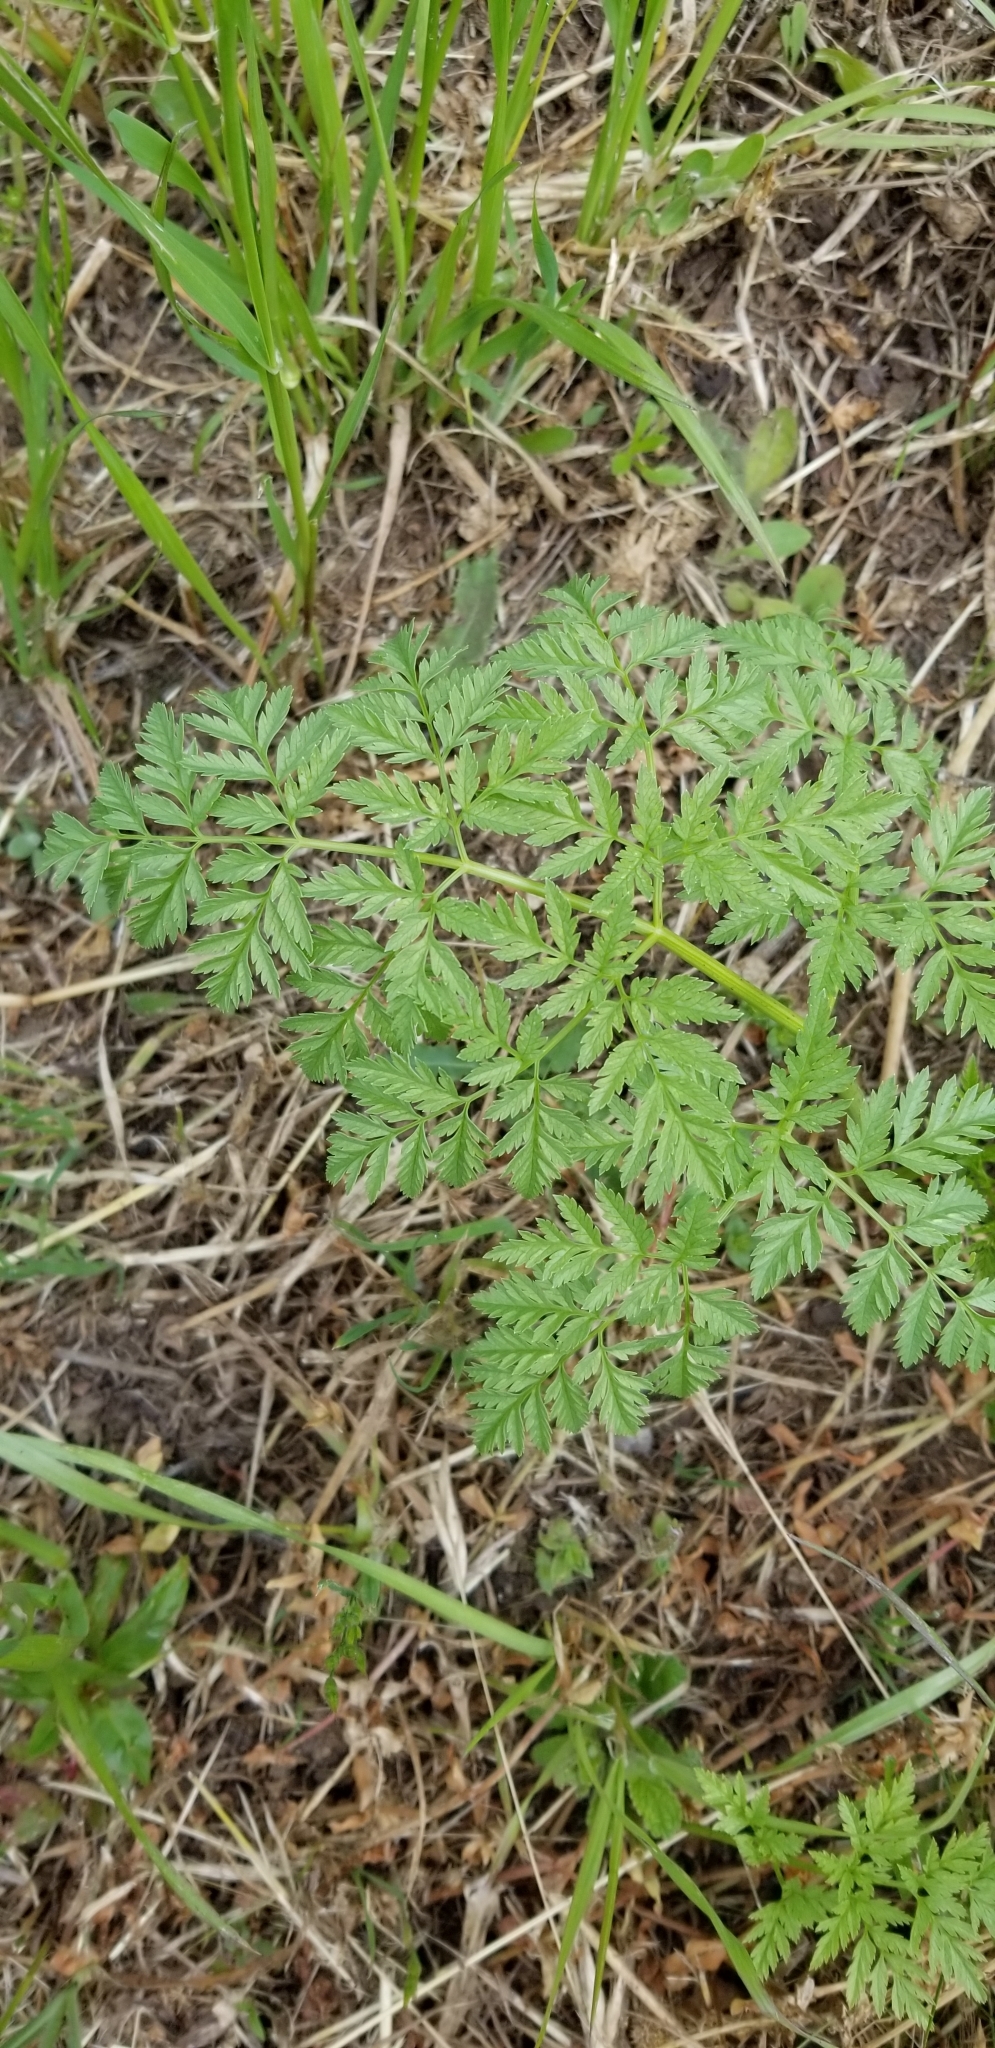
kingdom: Plantae
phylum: Tracheophyta
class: Magnoliopsida
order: Apiales
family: Apiaceae
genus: Conium
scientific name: Conium maculatum
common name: Hemlock
